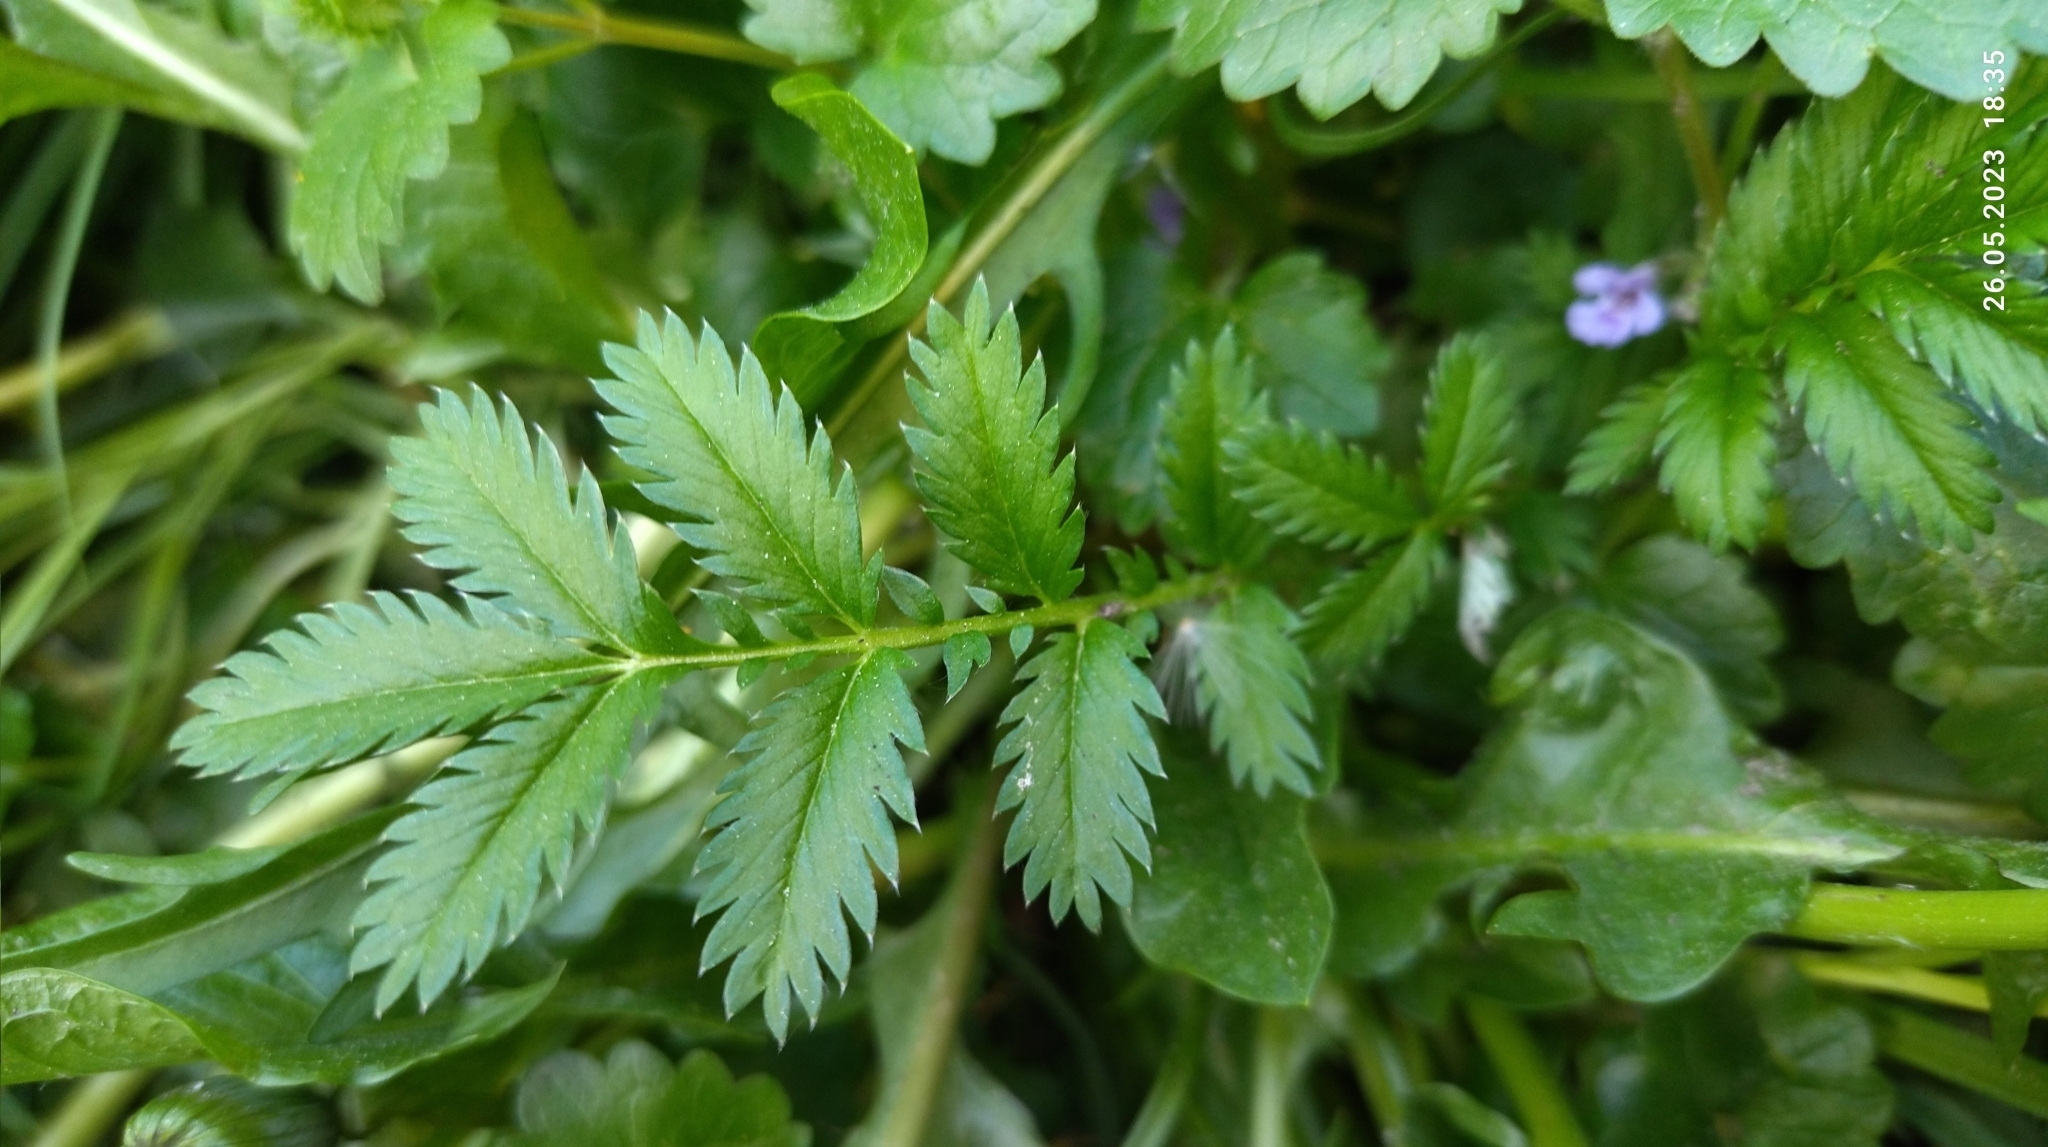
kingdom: Plantae
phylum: Tracheophyta
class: Magnoliopsida
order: Rosales
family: Rosaceae
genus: Argentina
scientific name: Argentina anserina
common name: Common silverweed
